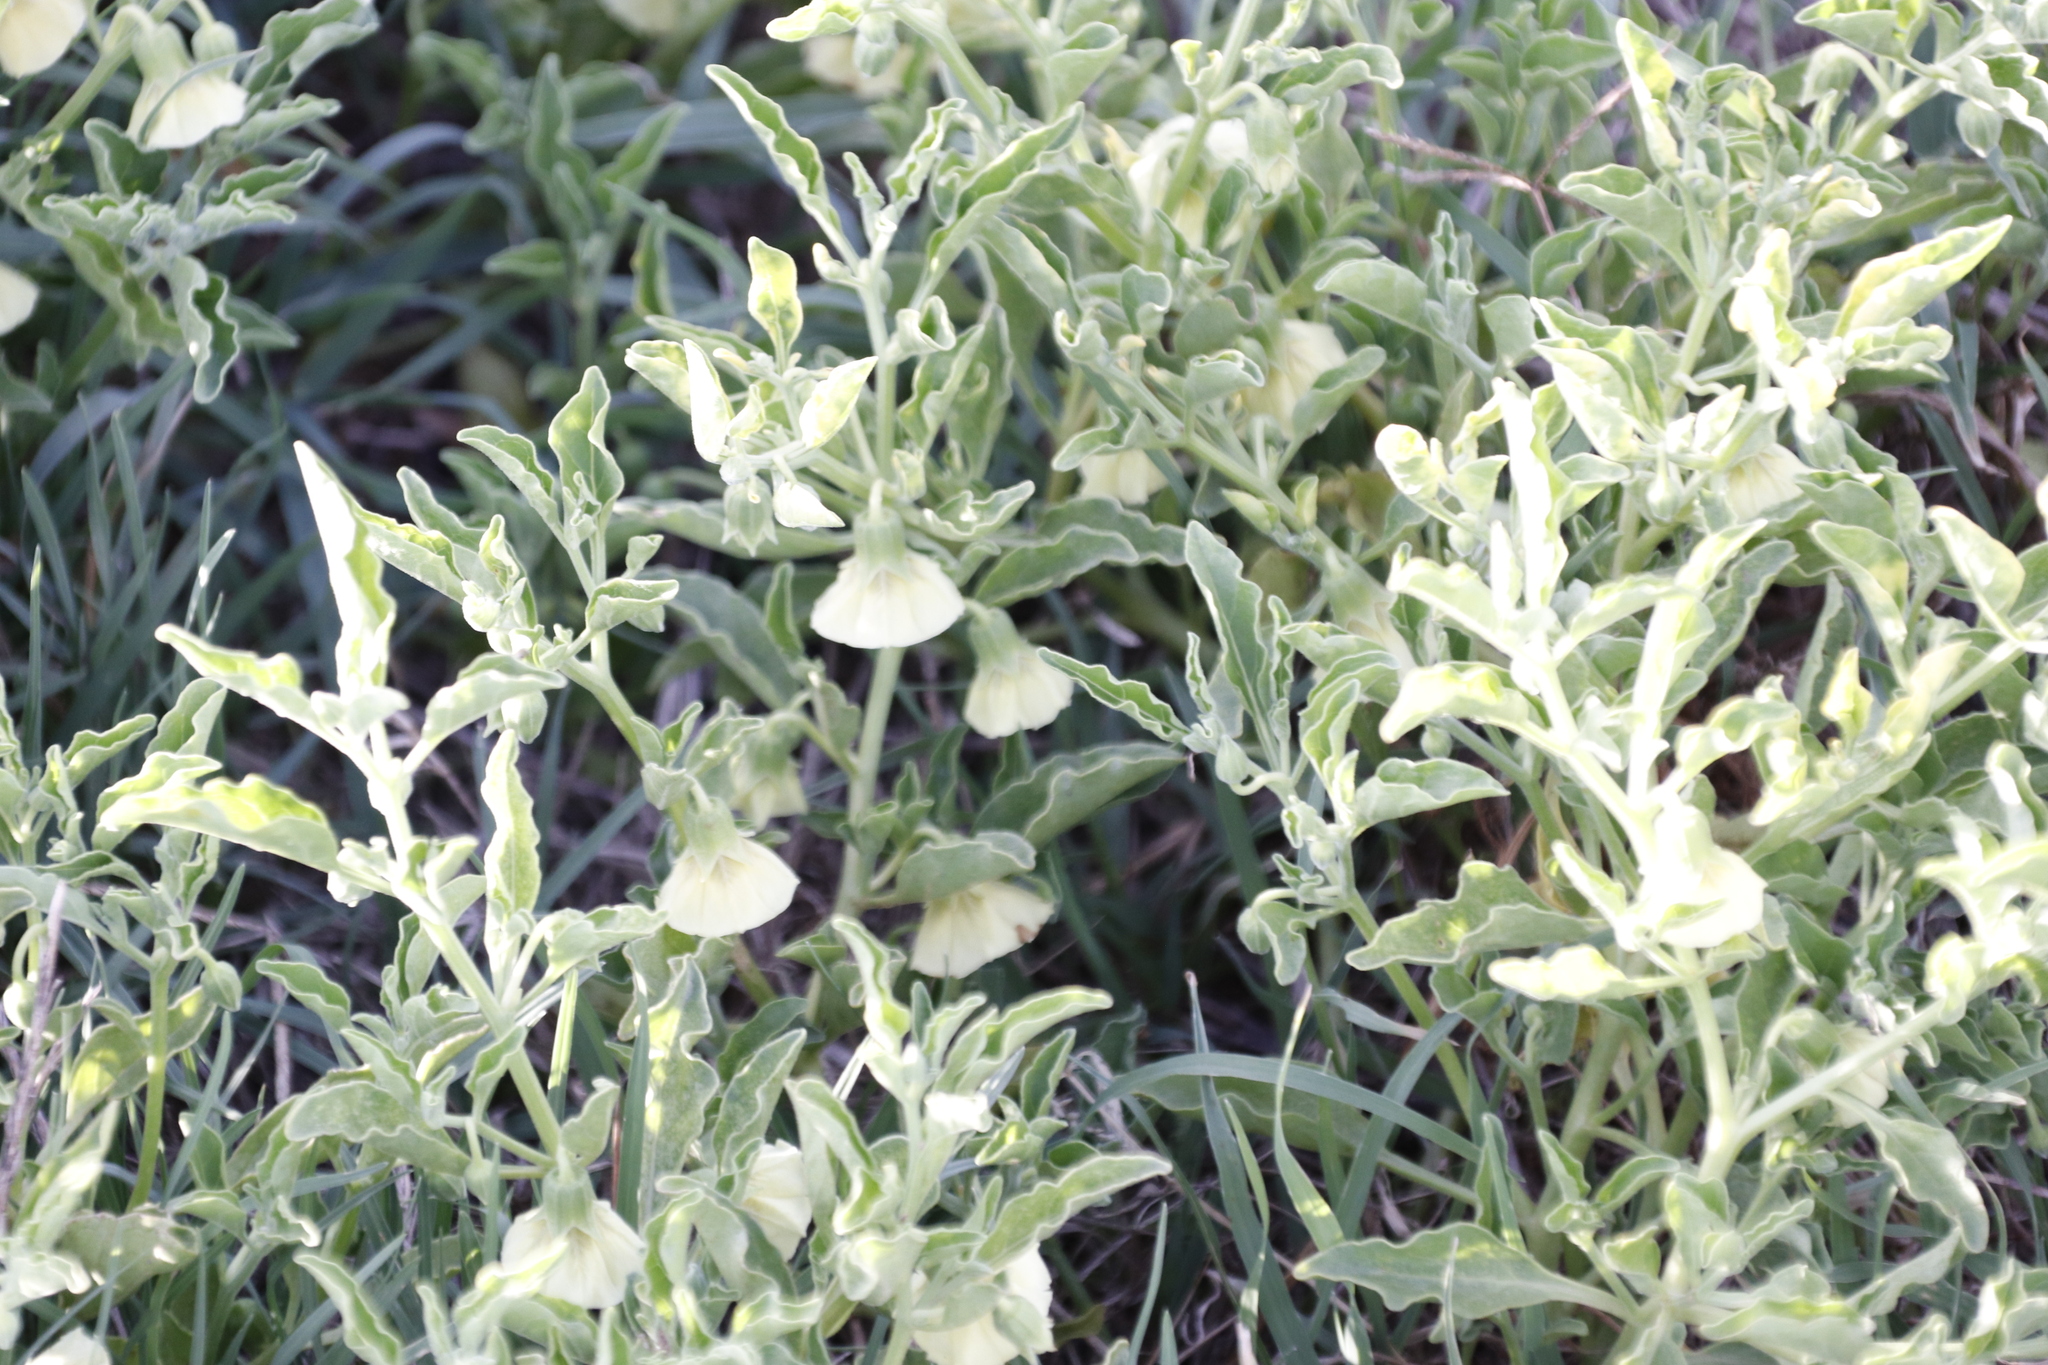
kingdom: Plantae
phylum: Tracheophyta
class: Magnoliopsida
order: Solanales
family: Solanaceae
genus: Physalis
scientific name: Physalis viscosa
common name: Stellate ground-cherry
